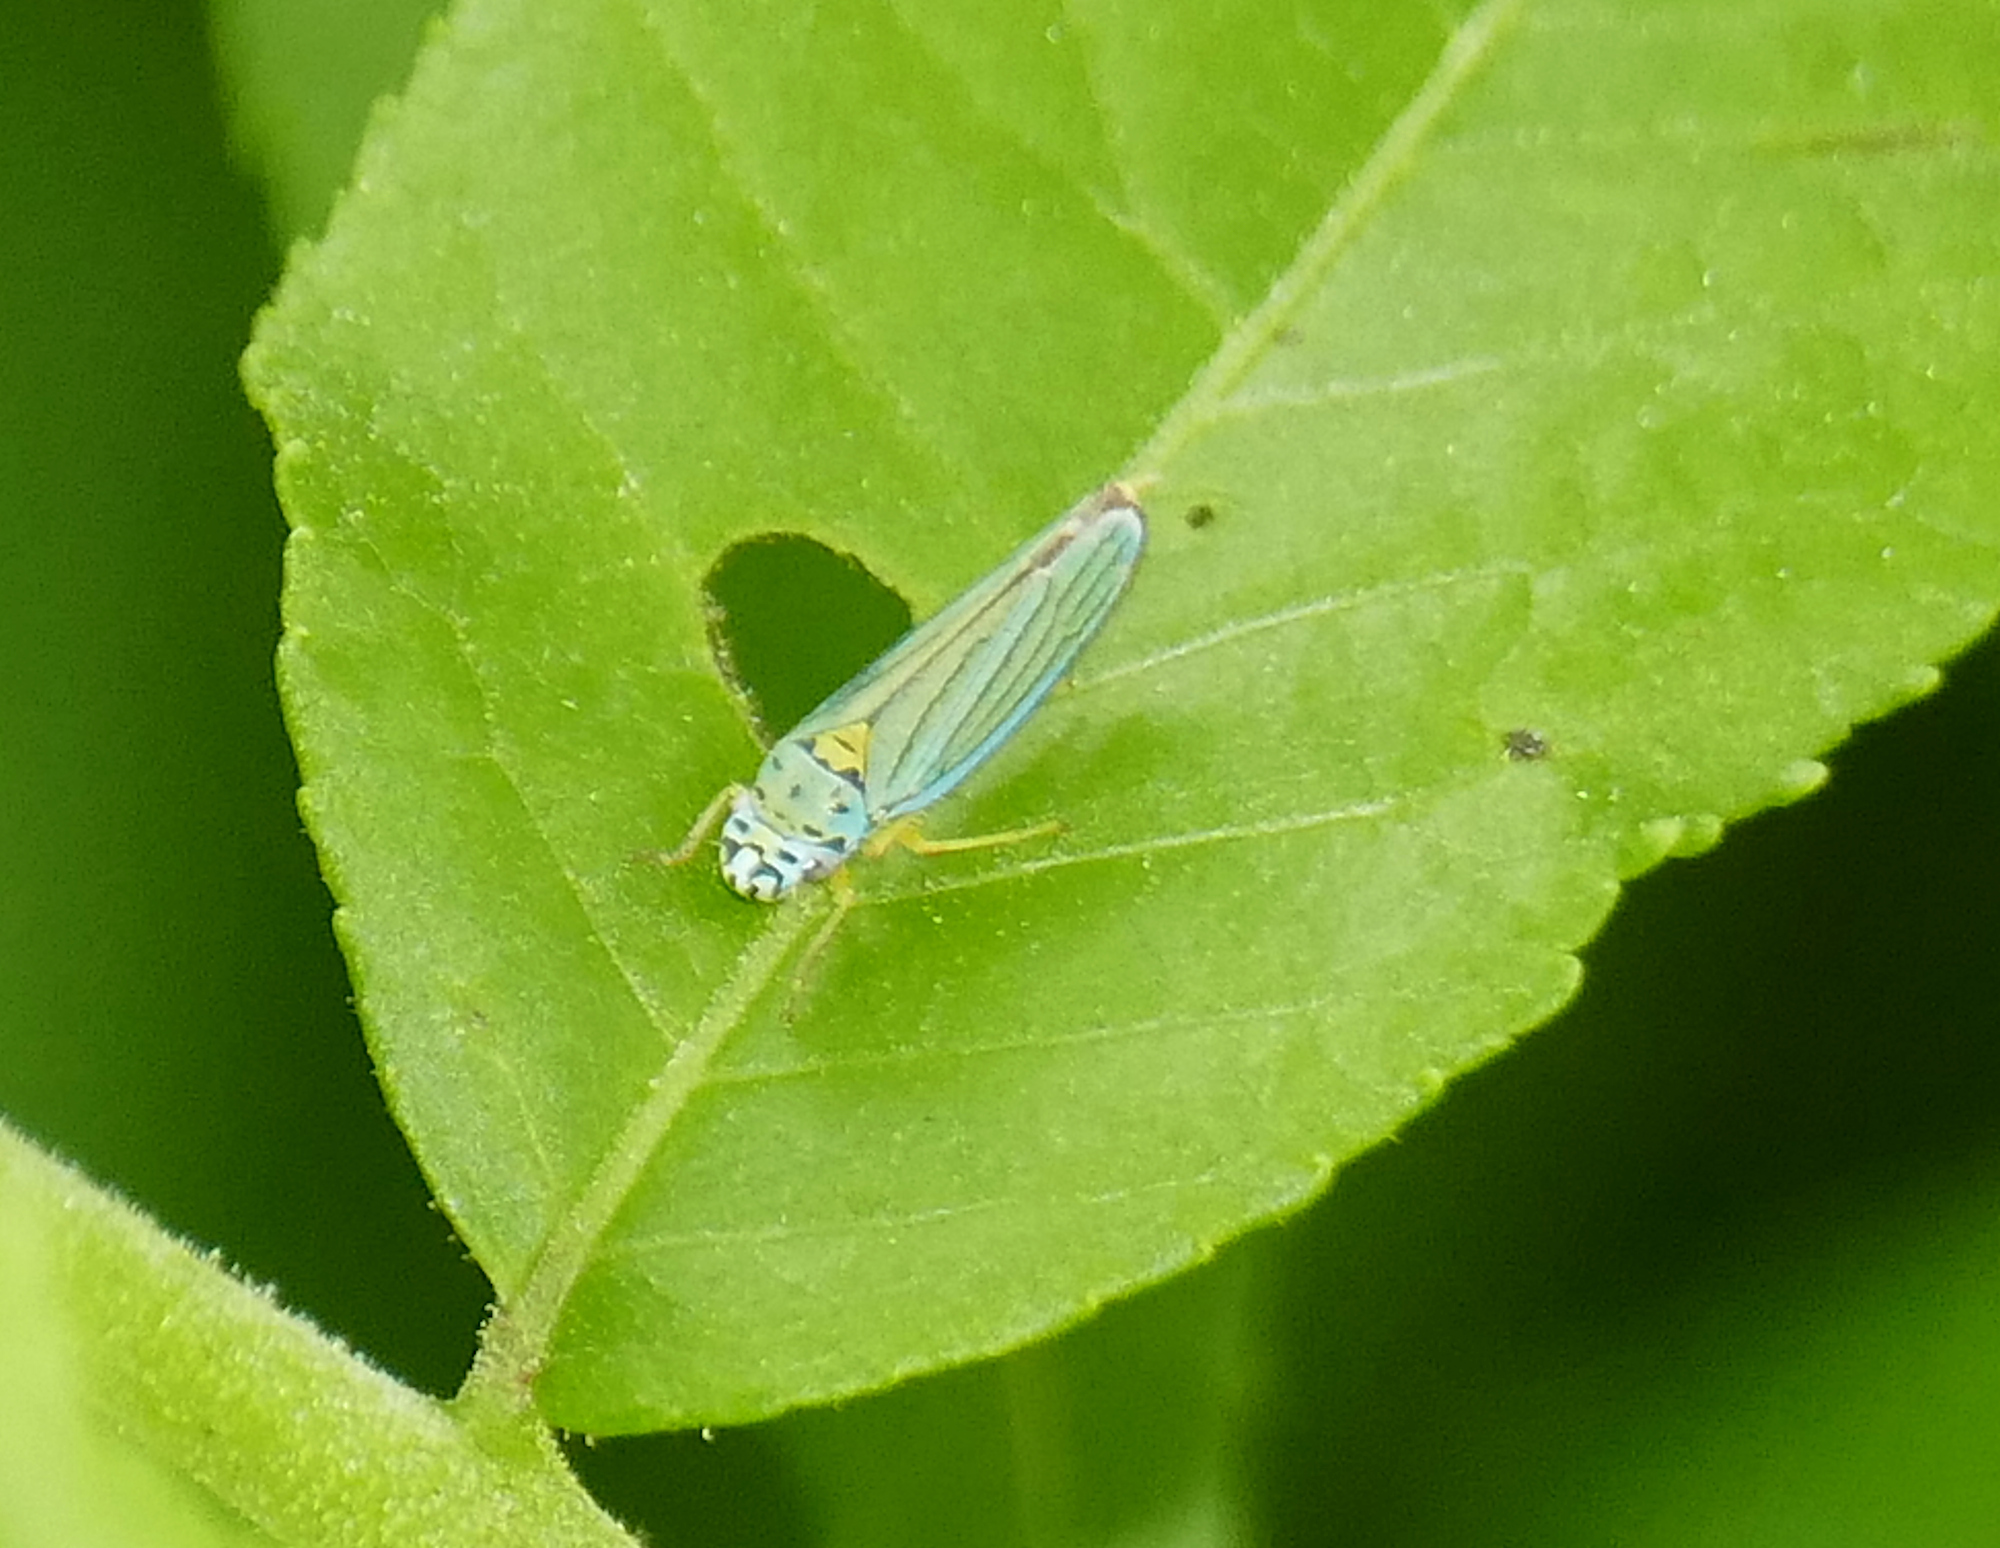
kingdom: Animalia
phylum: Arthropoda
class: Insecta
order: Hemiptera
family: Cicadellidae
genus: Graphocephala
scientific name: Graphocephala atropunctata
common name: Blue-green sharpshooter
